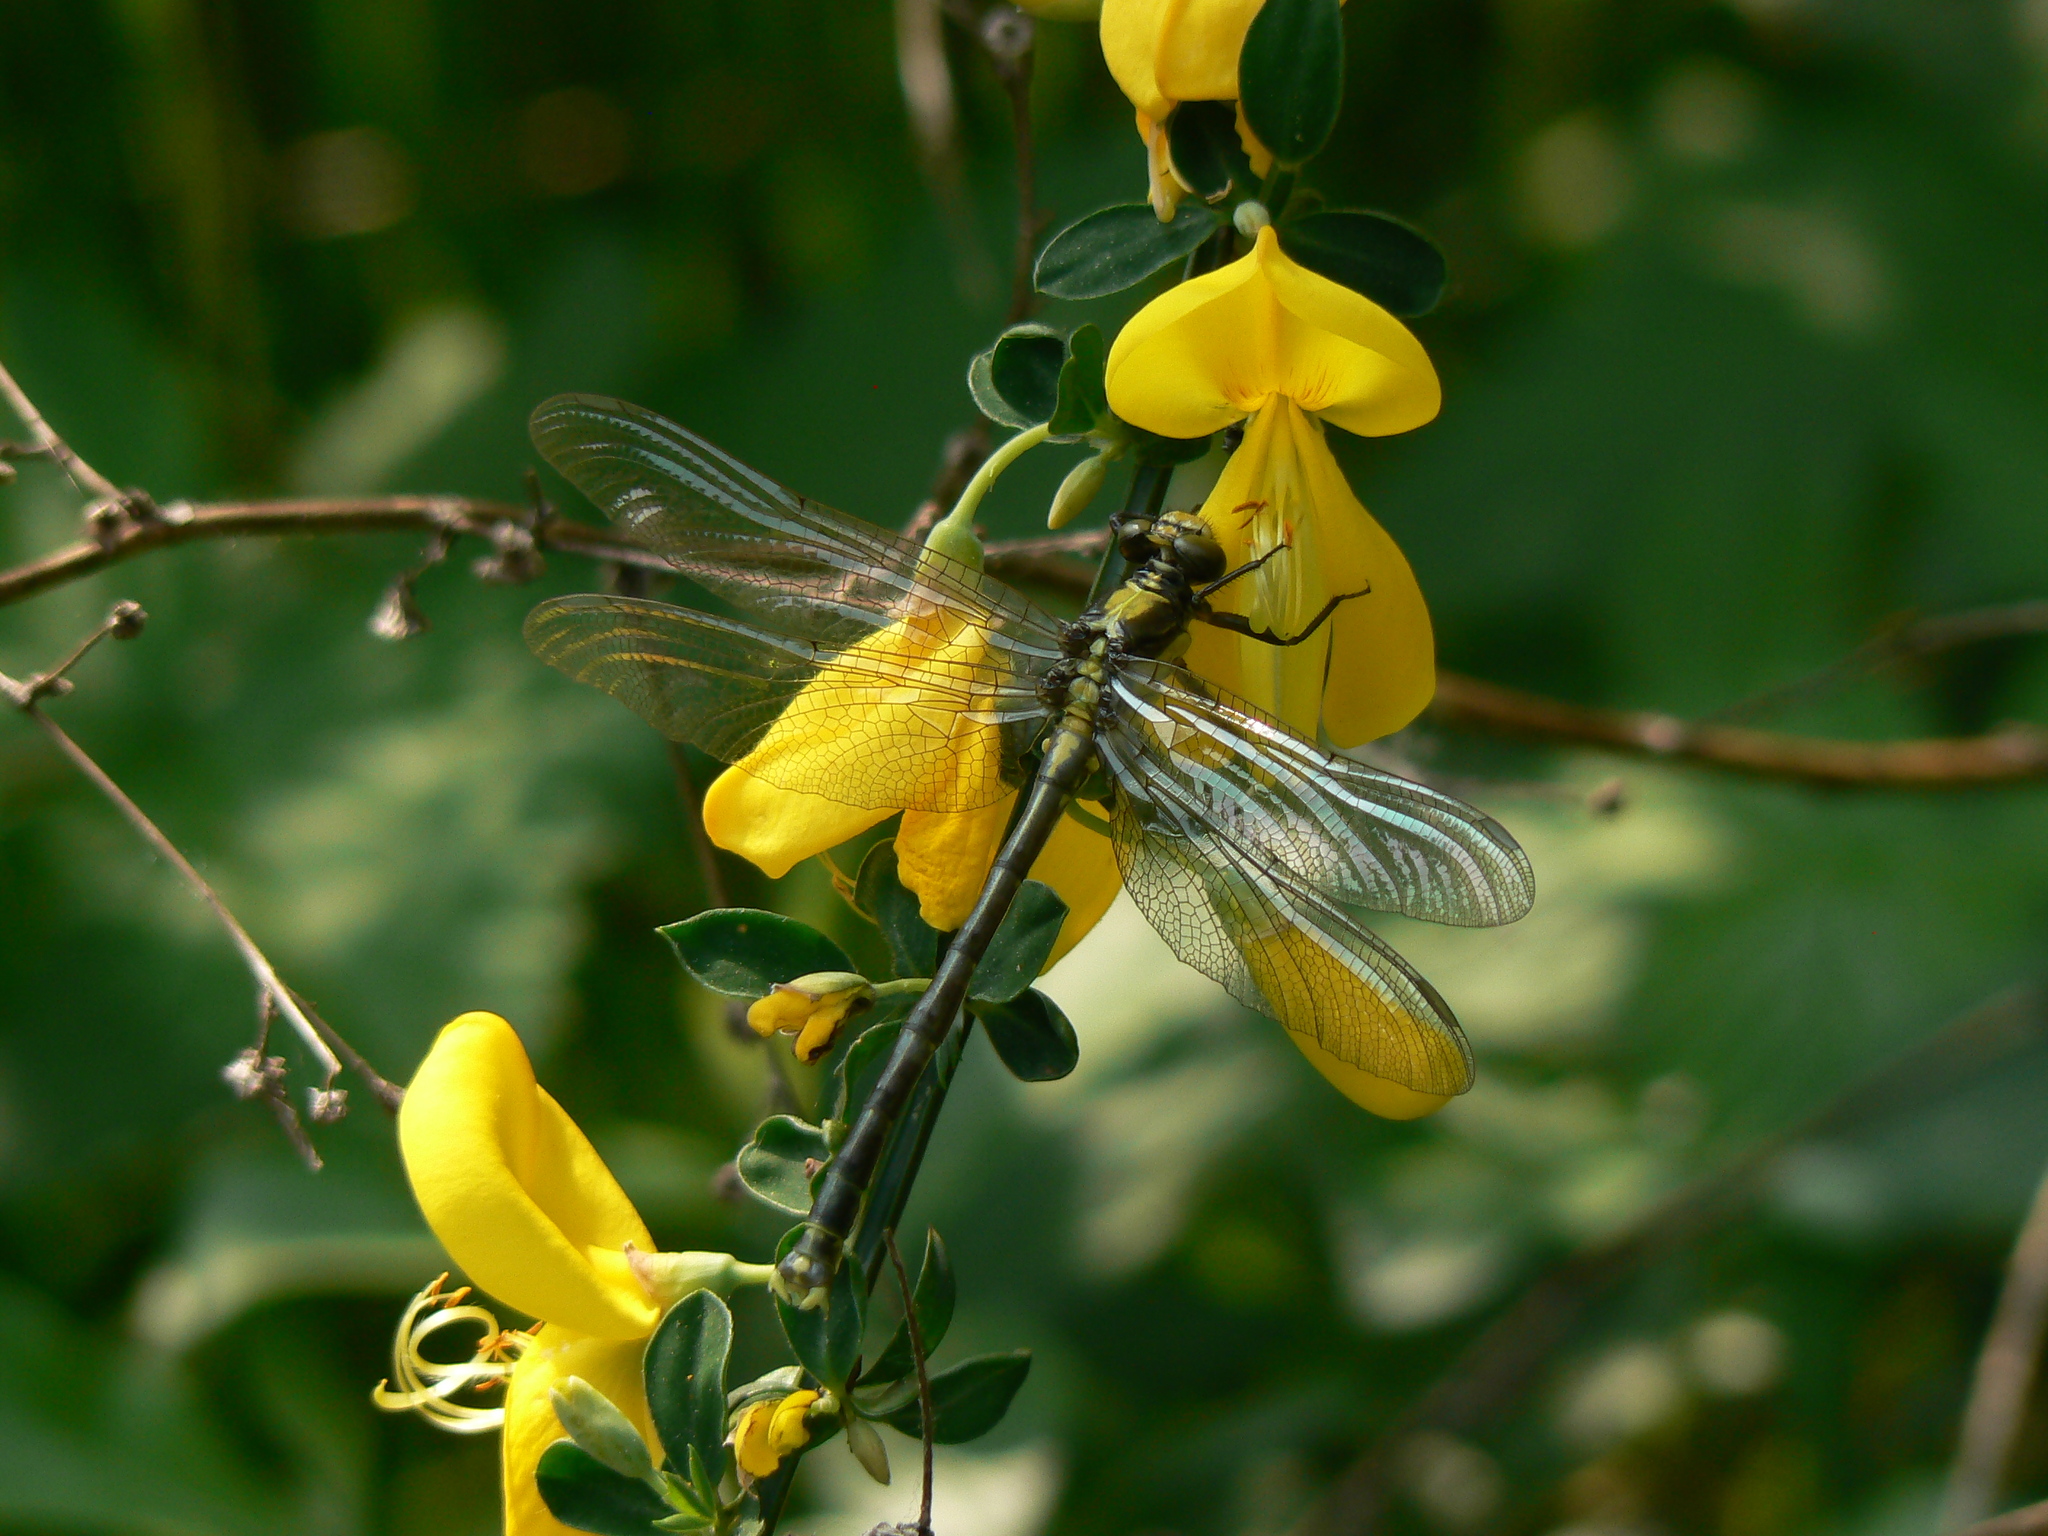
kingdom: Animalia
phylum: Arthropoda
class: Insecta
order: Odonata
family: Gomphidae
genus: Octogomphus
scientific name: Octogomphus specularis
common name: Grappletail
